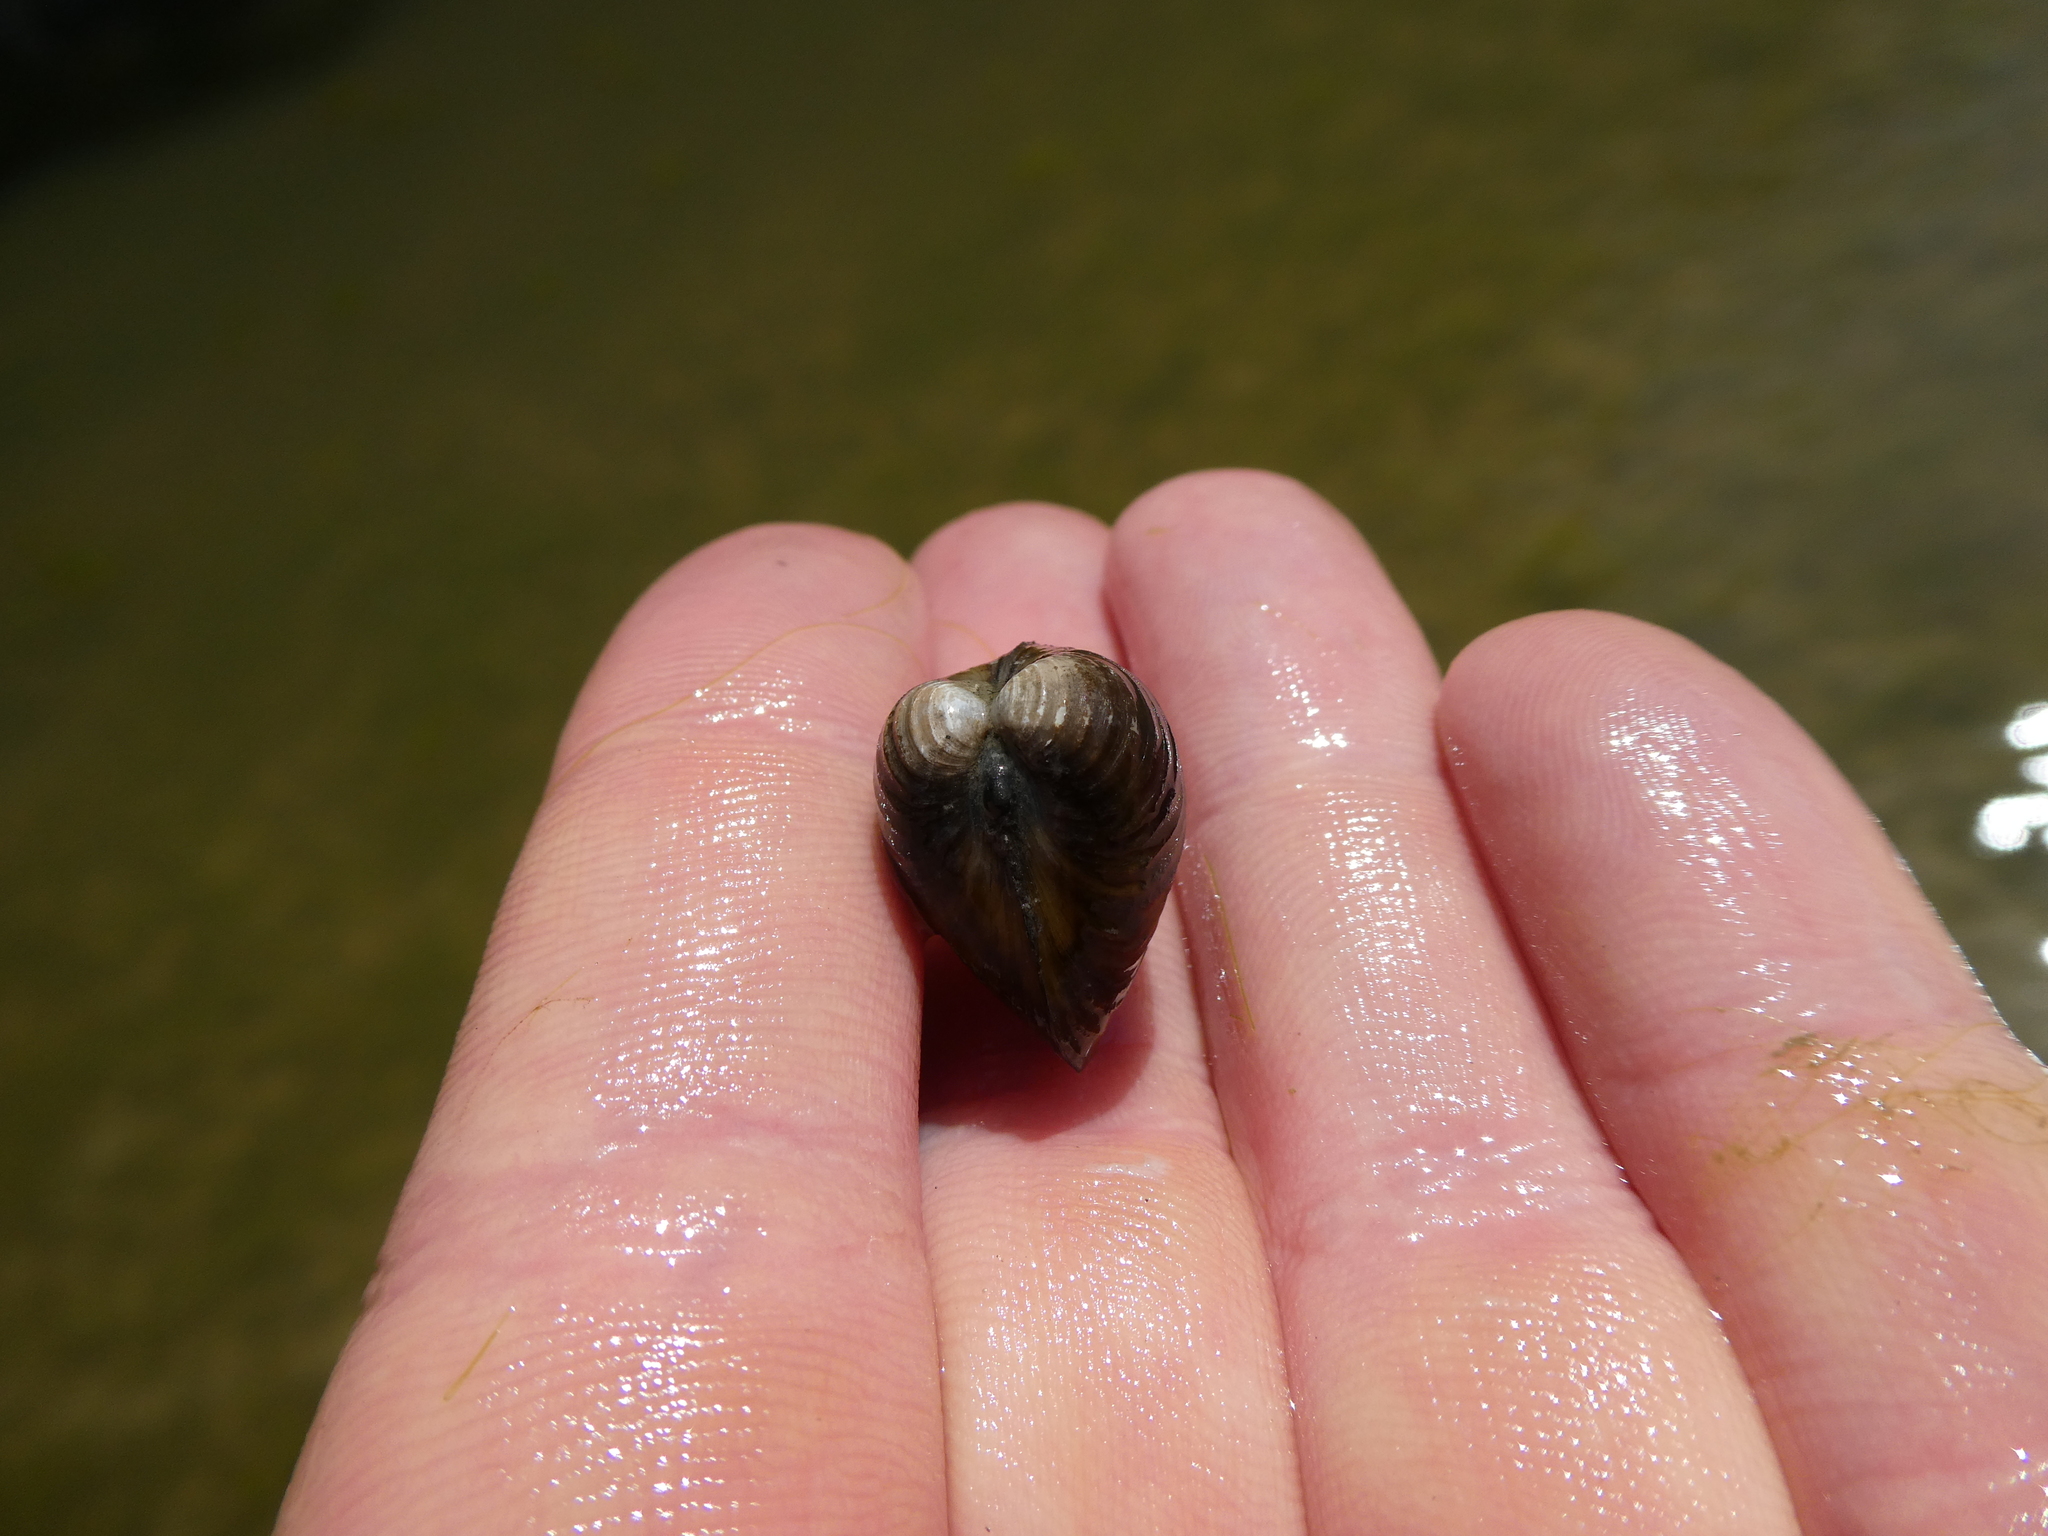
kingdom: Animalia
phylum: Mollusca
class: Bivalvia
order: Venerida
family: Cyrenidae
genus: Corbicula
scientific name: Corbicula fluminea
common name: Asian clam
